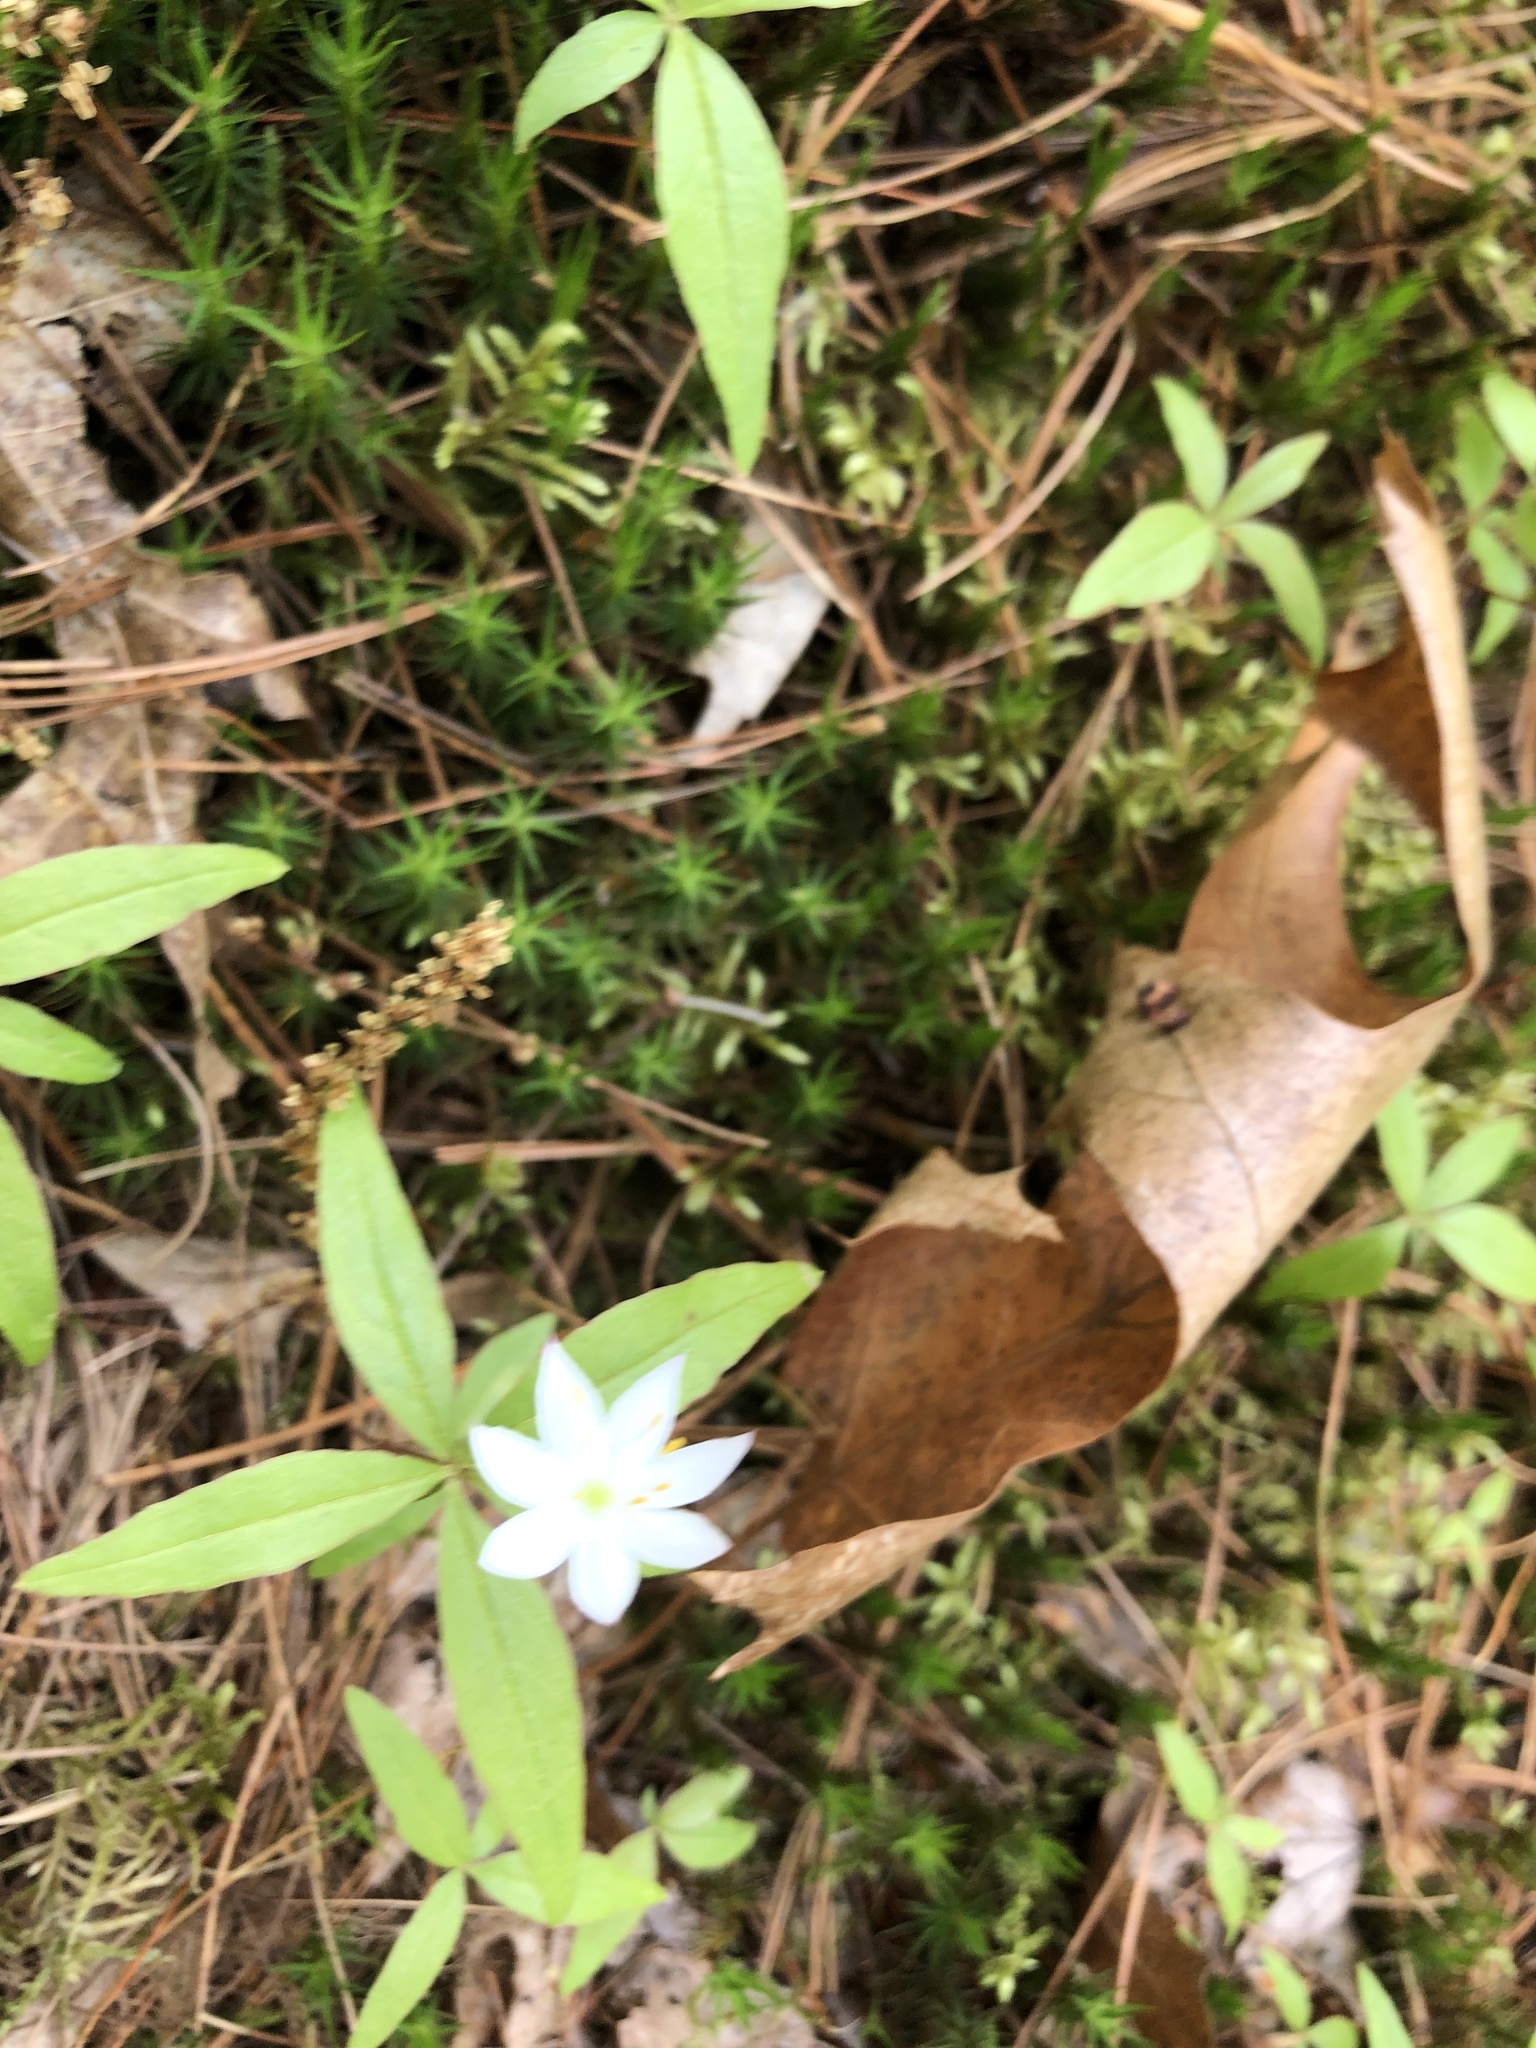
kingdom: Plantae
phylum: Tracheophyta
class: Magnoliopsida
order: Ericales
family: Primulaceae
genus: Lysimachia
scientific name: Lysimachia borealis
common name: American starflower
